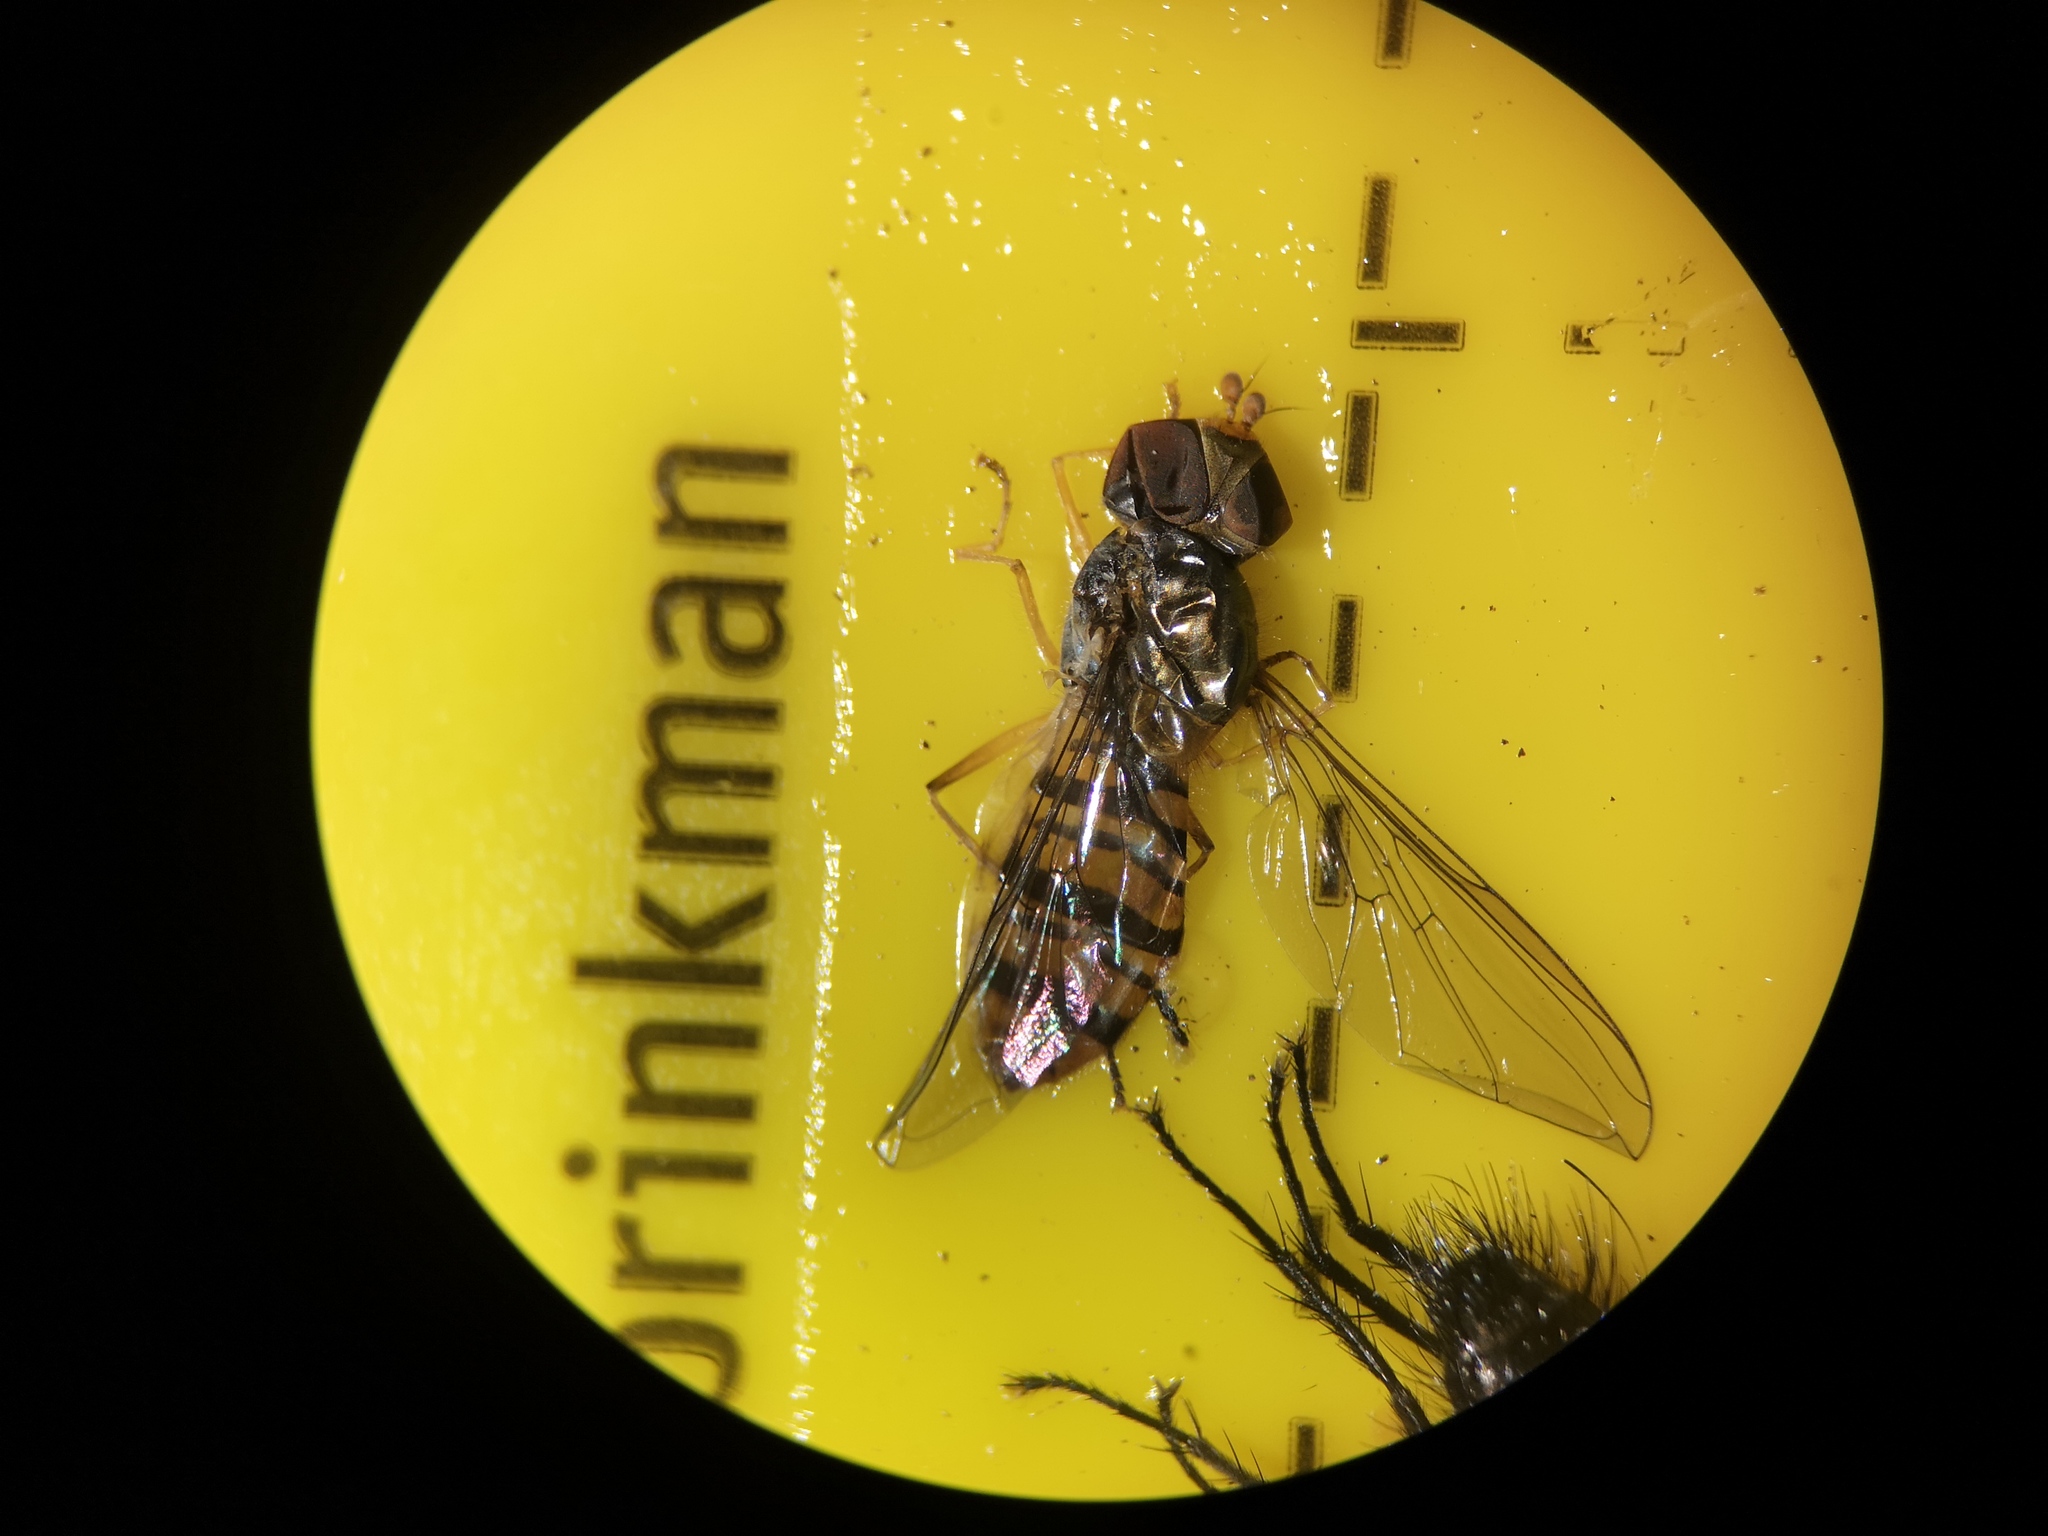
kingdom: Animalia
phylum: Arthropoda
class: Insecta
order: Diptera
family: Syrphidae
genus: Episyrphus
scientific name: Episyrphus balteatus
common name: Marmalade hoverfly
